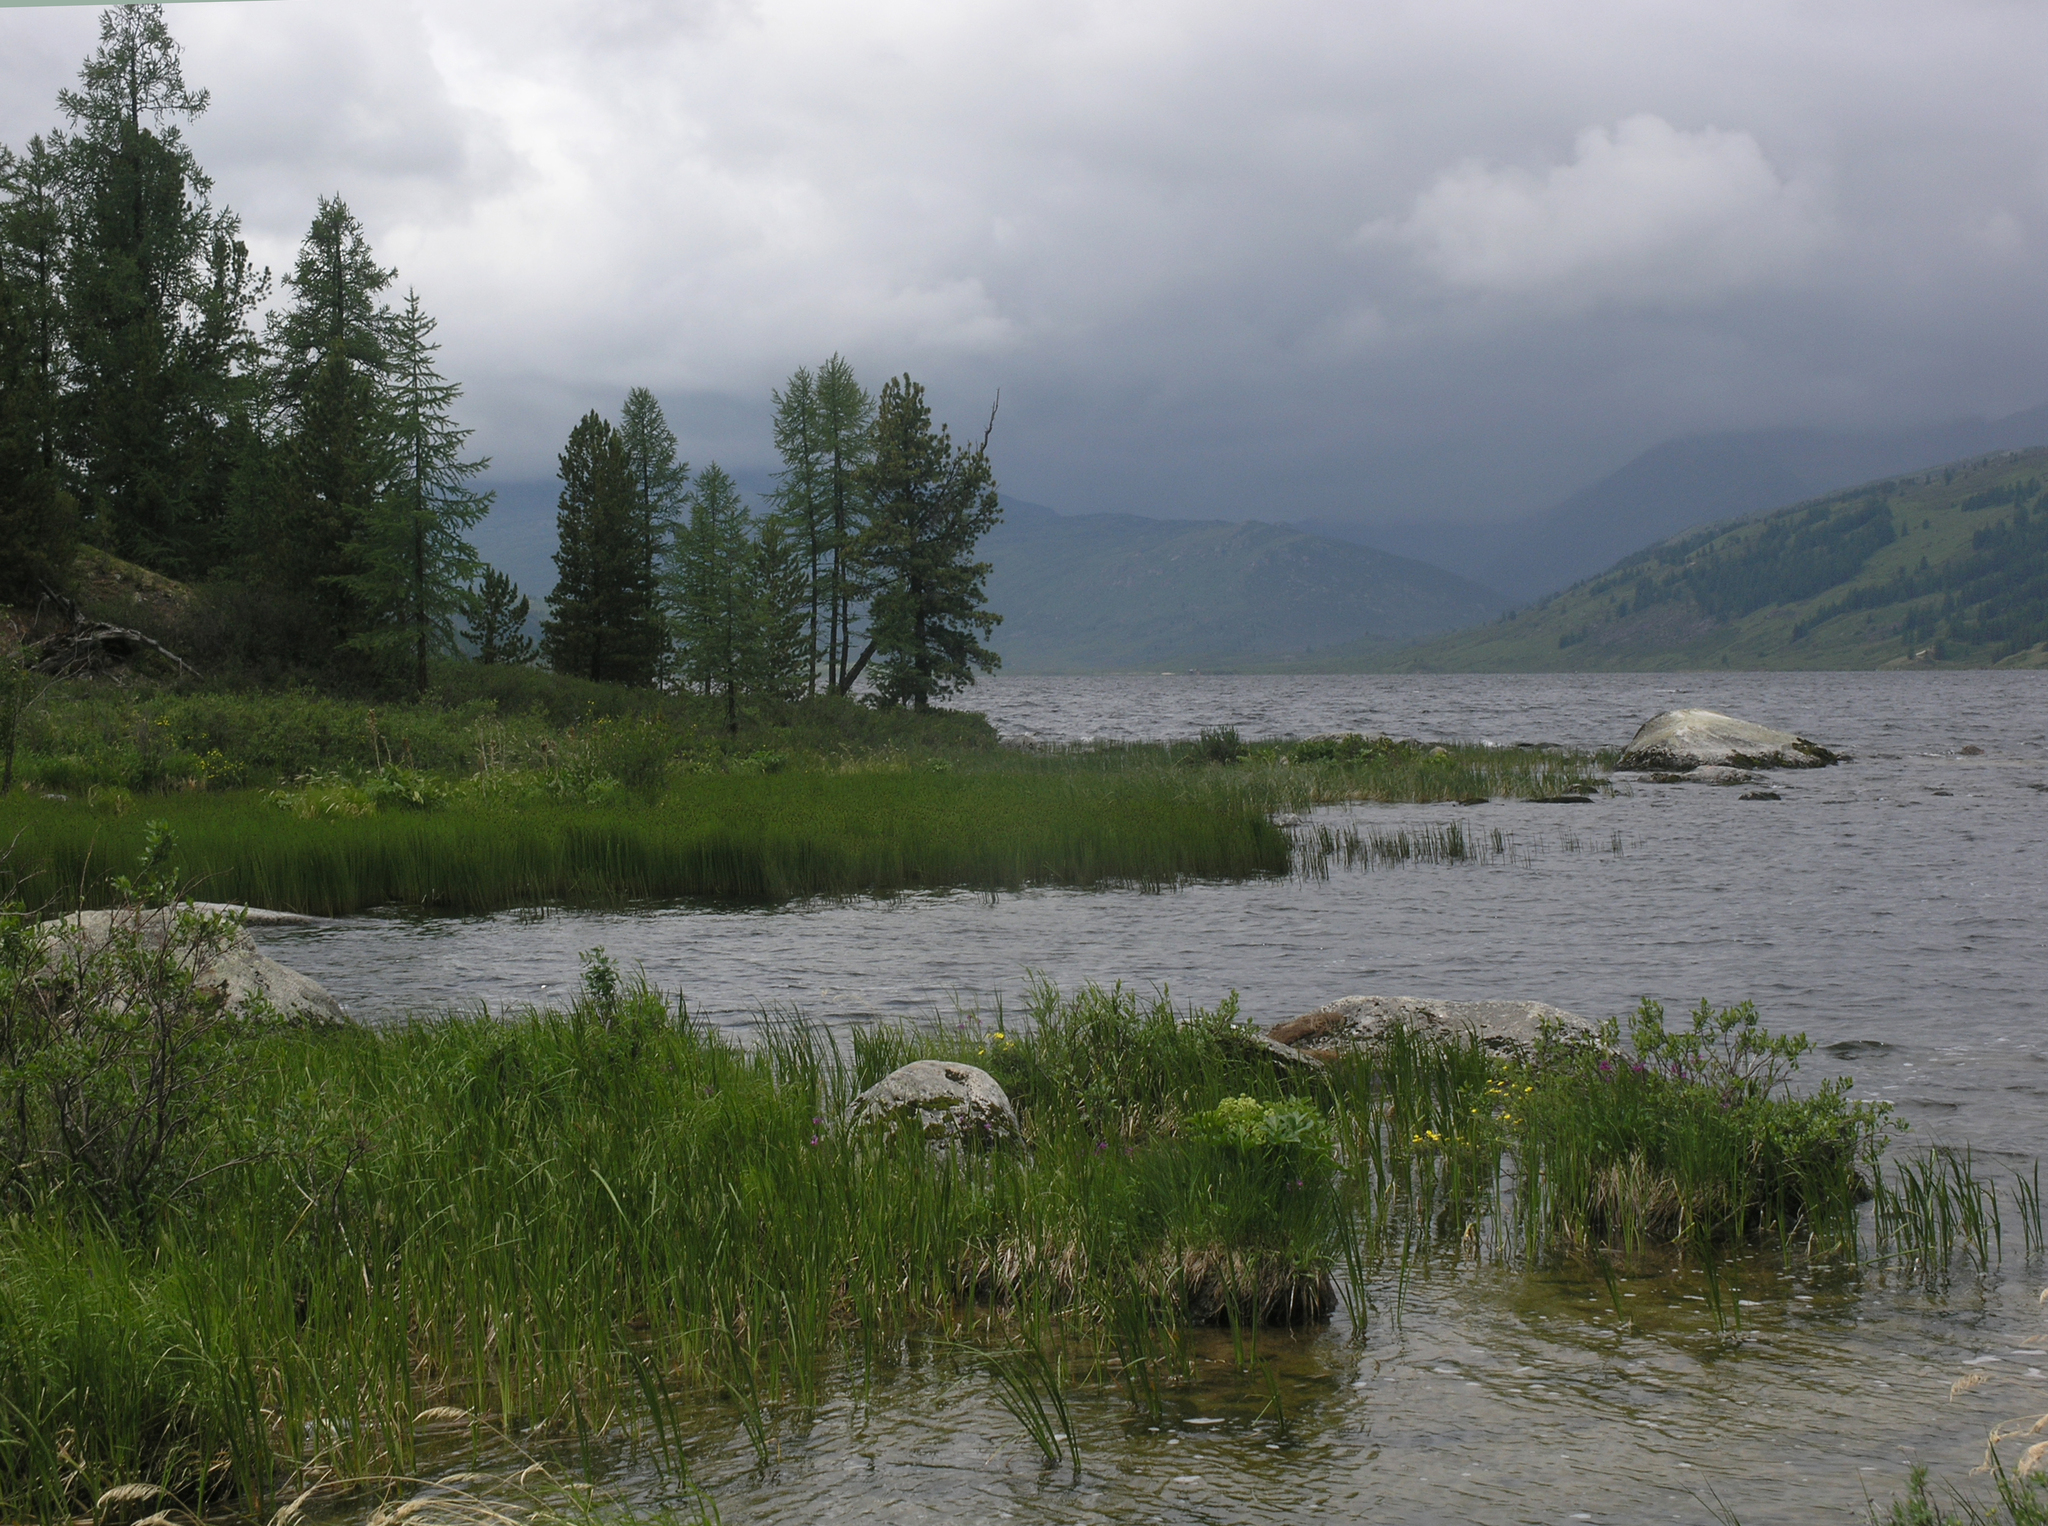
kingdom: Plantae
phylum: Tracheophyta
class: Pinopsida
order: Pinales
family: Pinaceae
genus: Larix
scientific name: Larix sibirica
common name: Siberian larch
